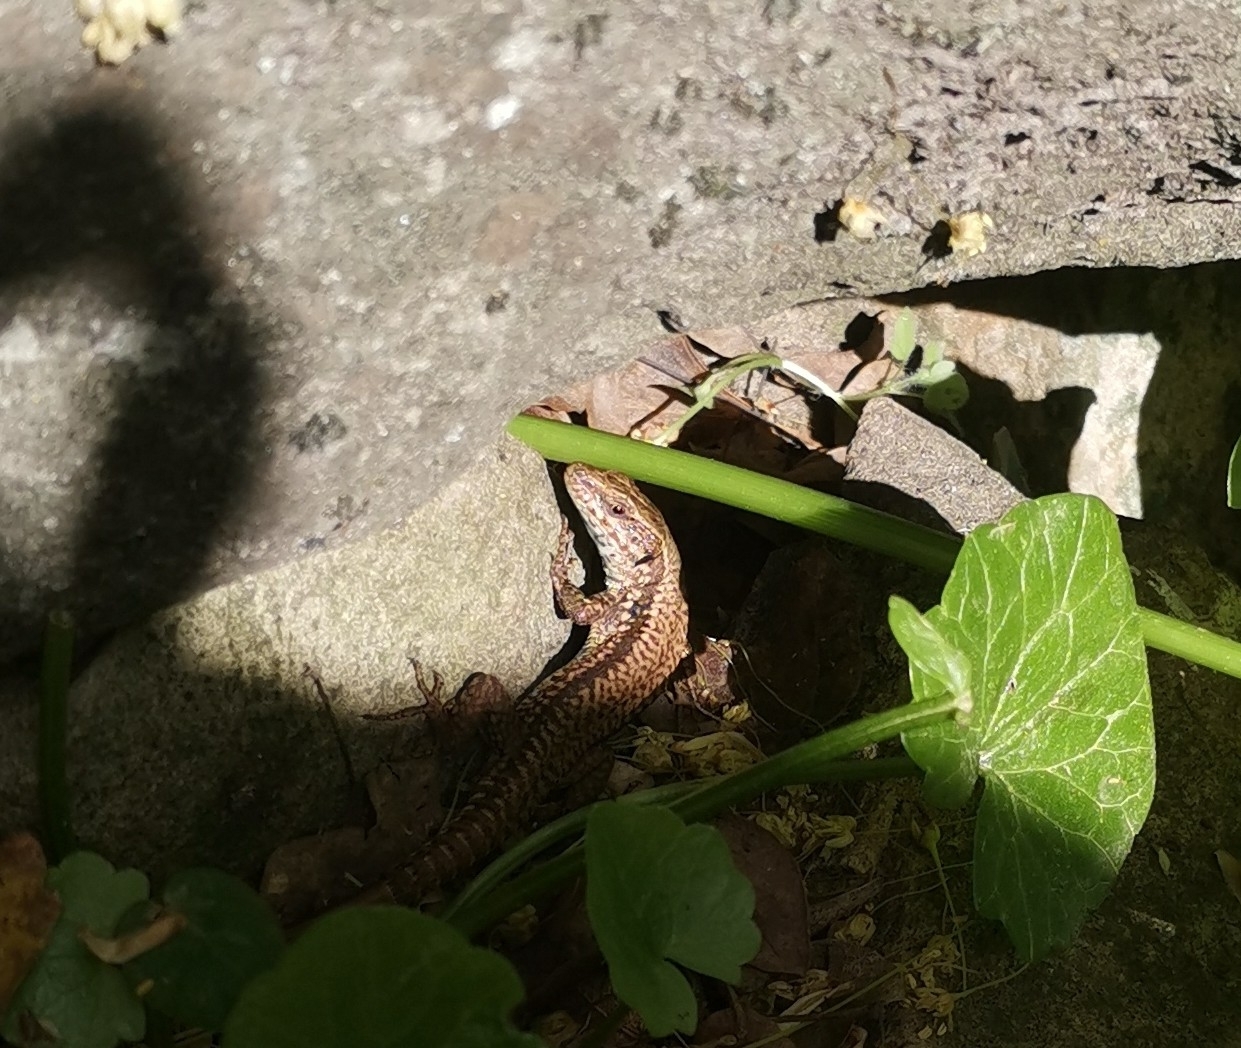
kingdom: Animalia
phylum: Chordata
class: Squamata
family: Lacertidae
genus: Podarcis
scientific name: Podarcis muralis
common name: Common wall lizard
